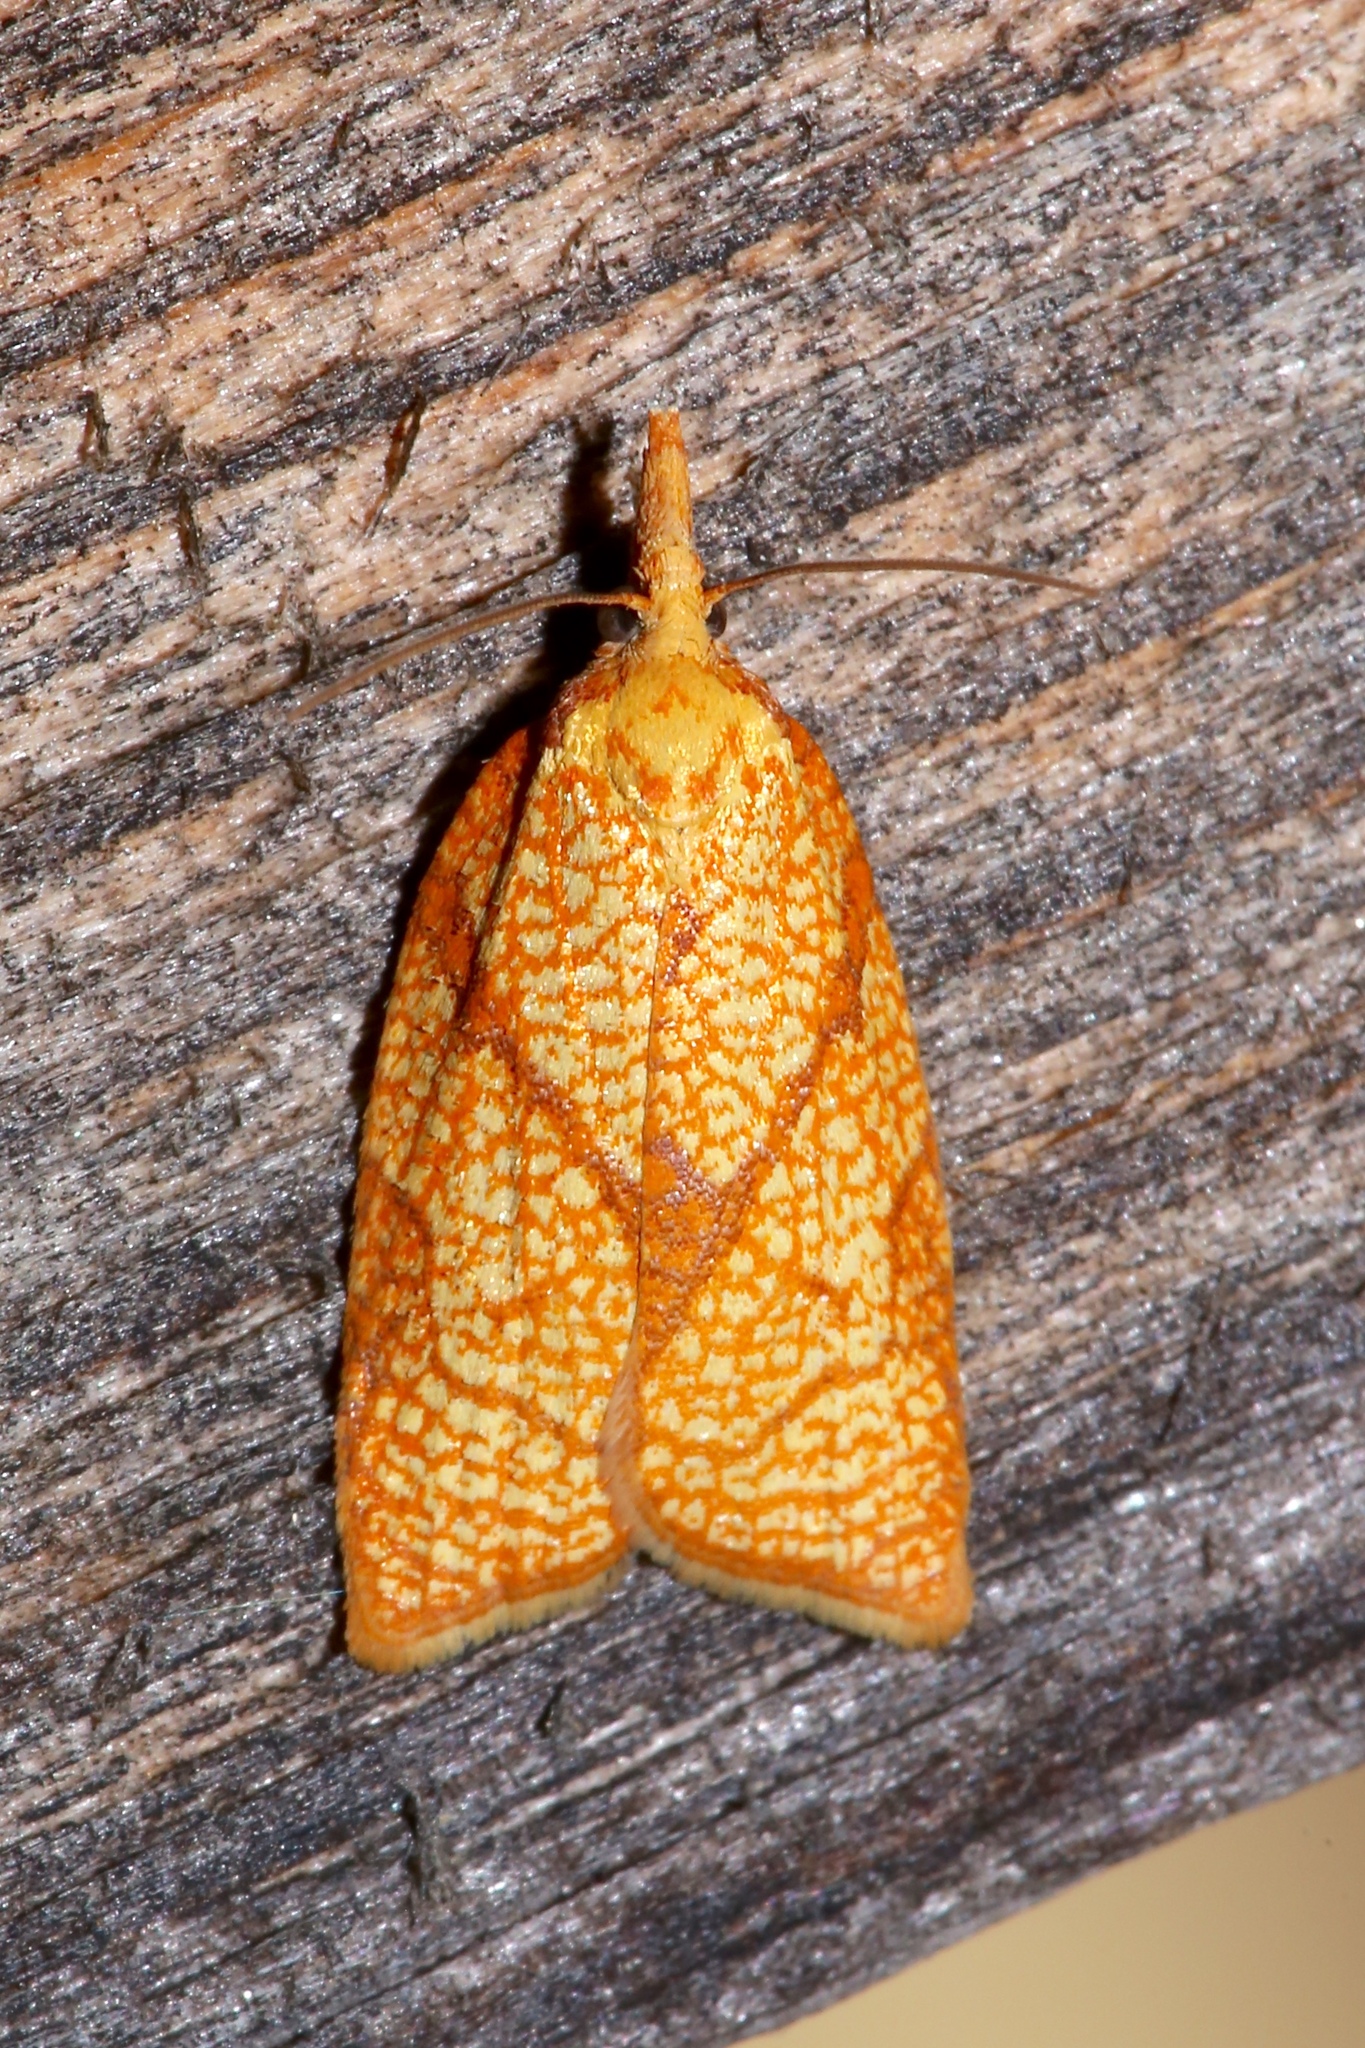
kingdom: Animalia
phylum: Arthropoda
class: Insecta
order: Lepidoptera
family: Tortricidae
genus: Cenopis
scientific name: Cenopis reticulatana
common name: Reticulated fruitworm moth
